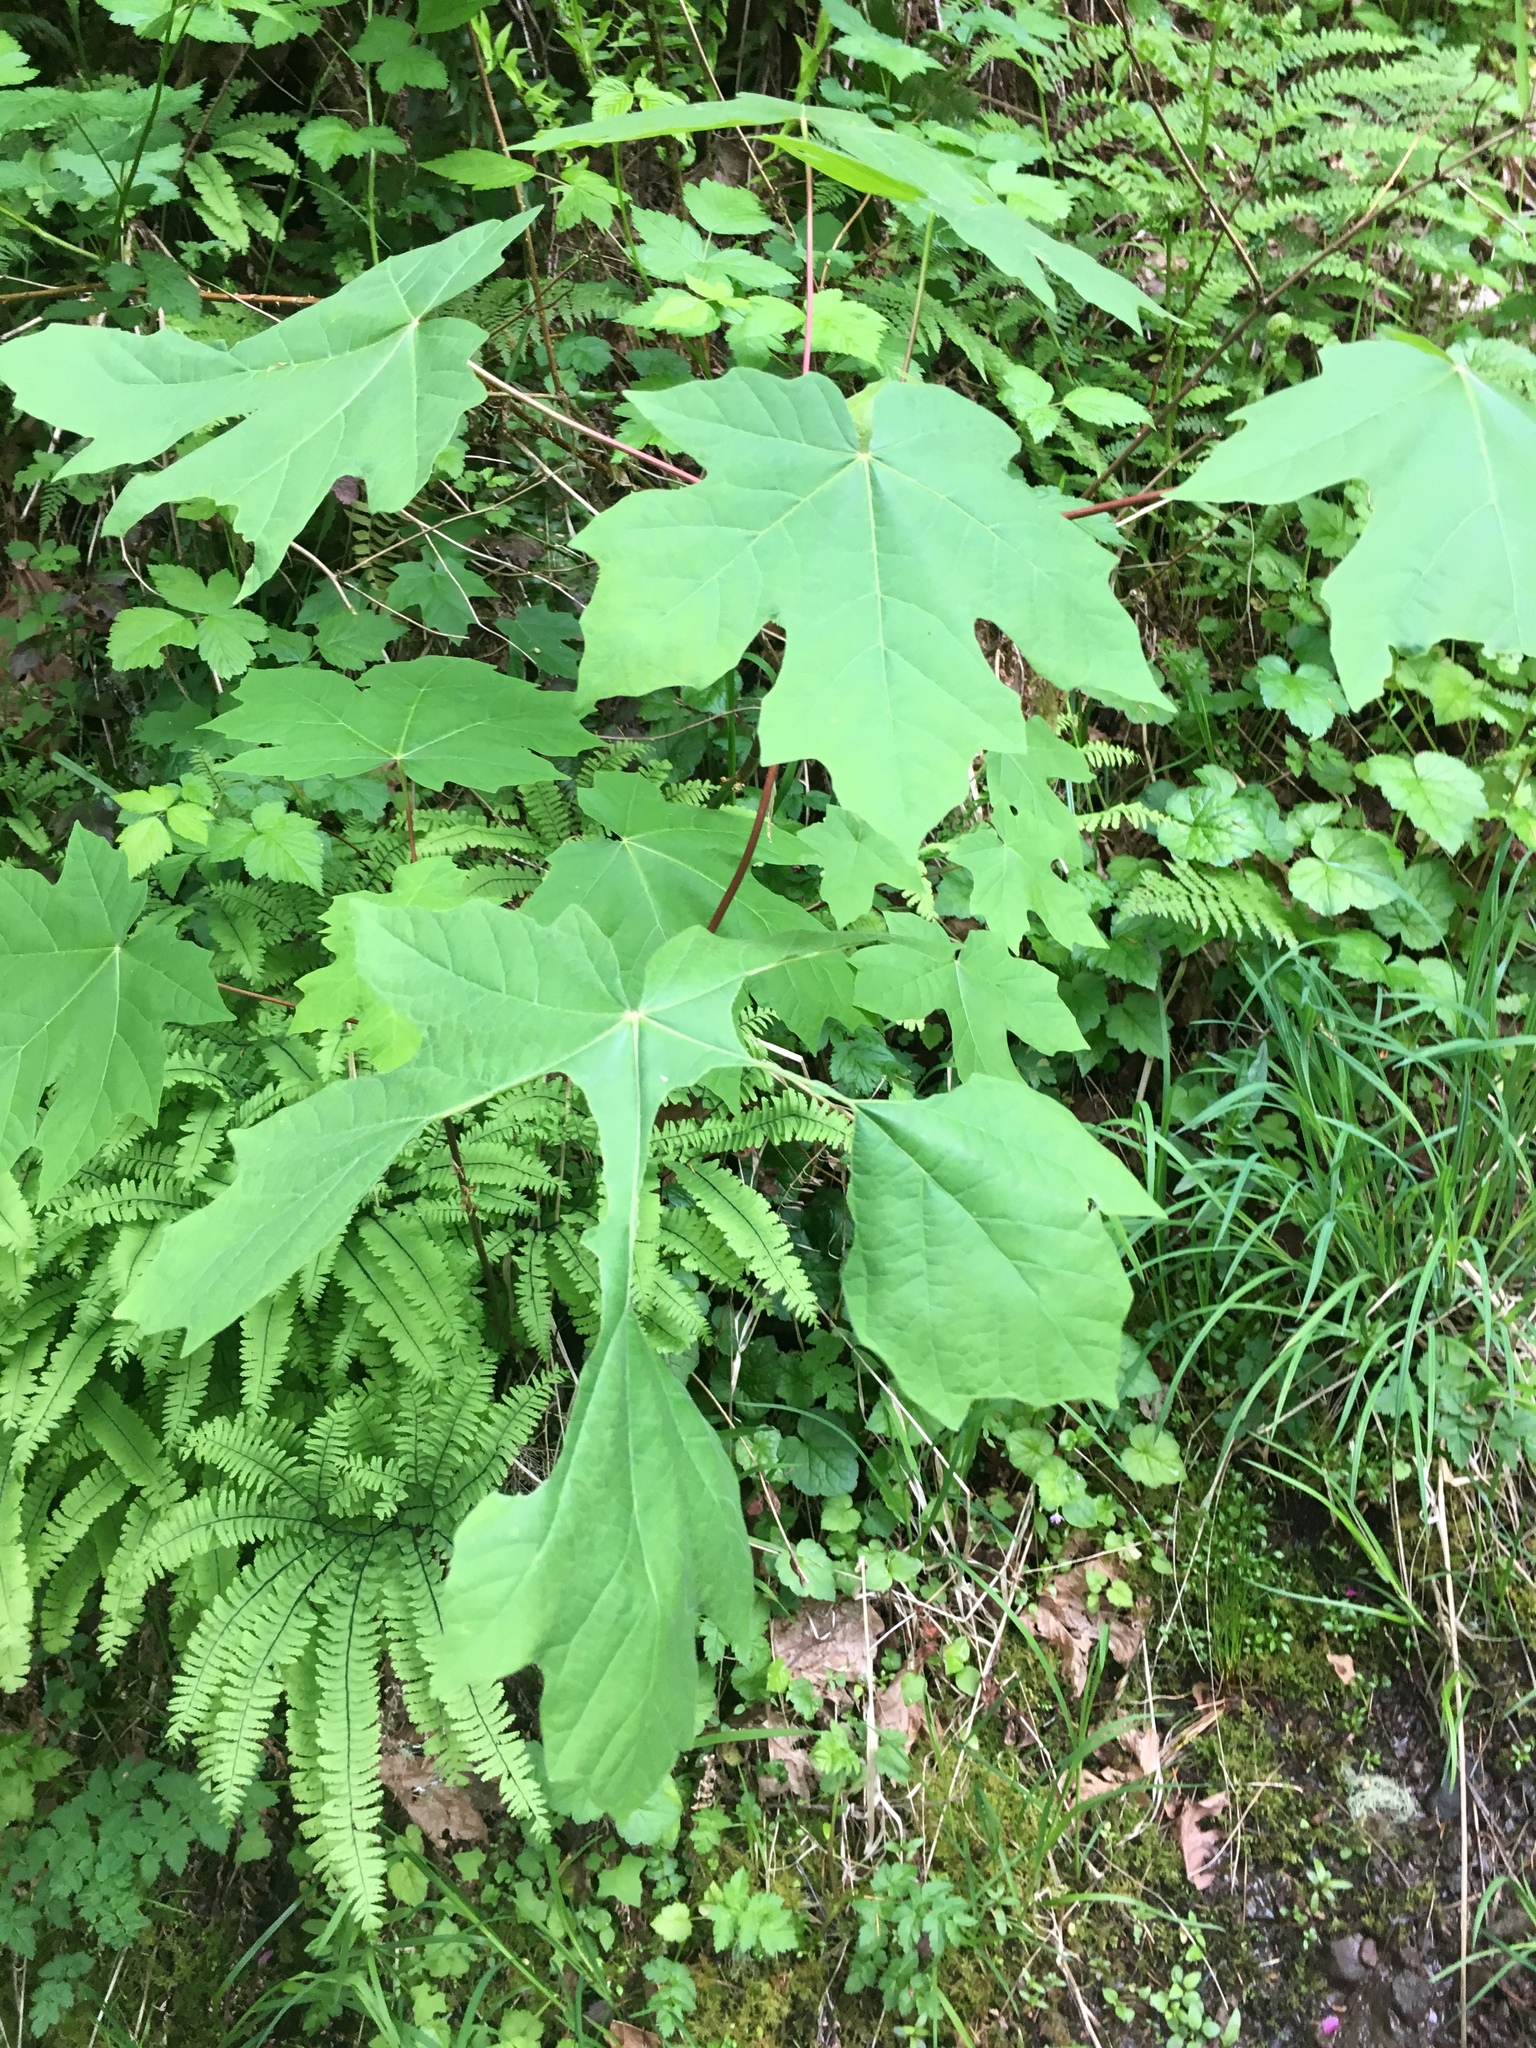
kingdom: Plantae
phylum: Tracheophyta
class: Magnoliopsida
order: Sapindales
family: Sapindaceae
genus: Acer
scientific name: Acer macrophyllum
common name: Oregon maple
